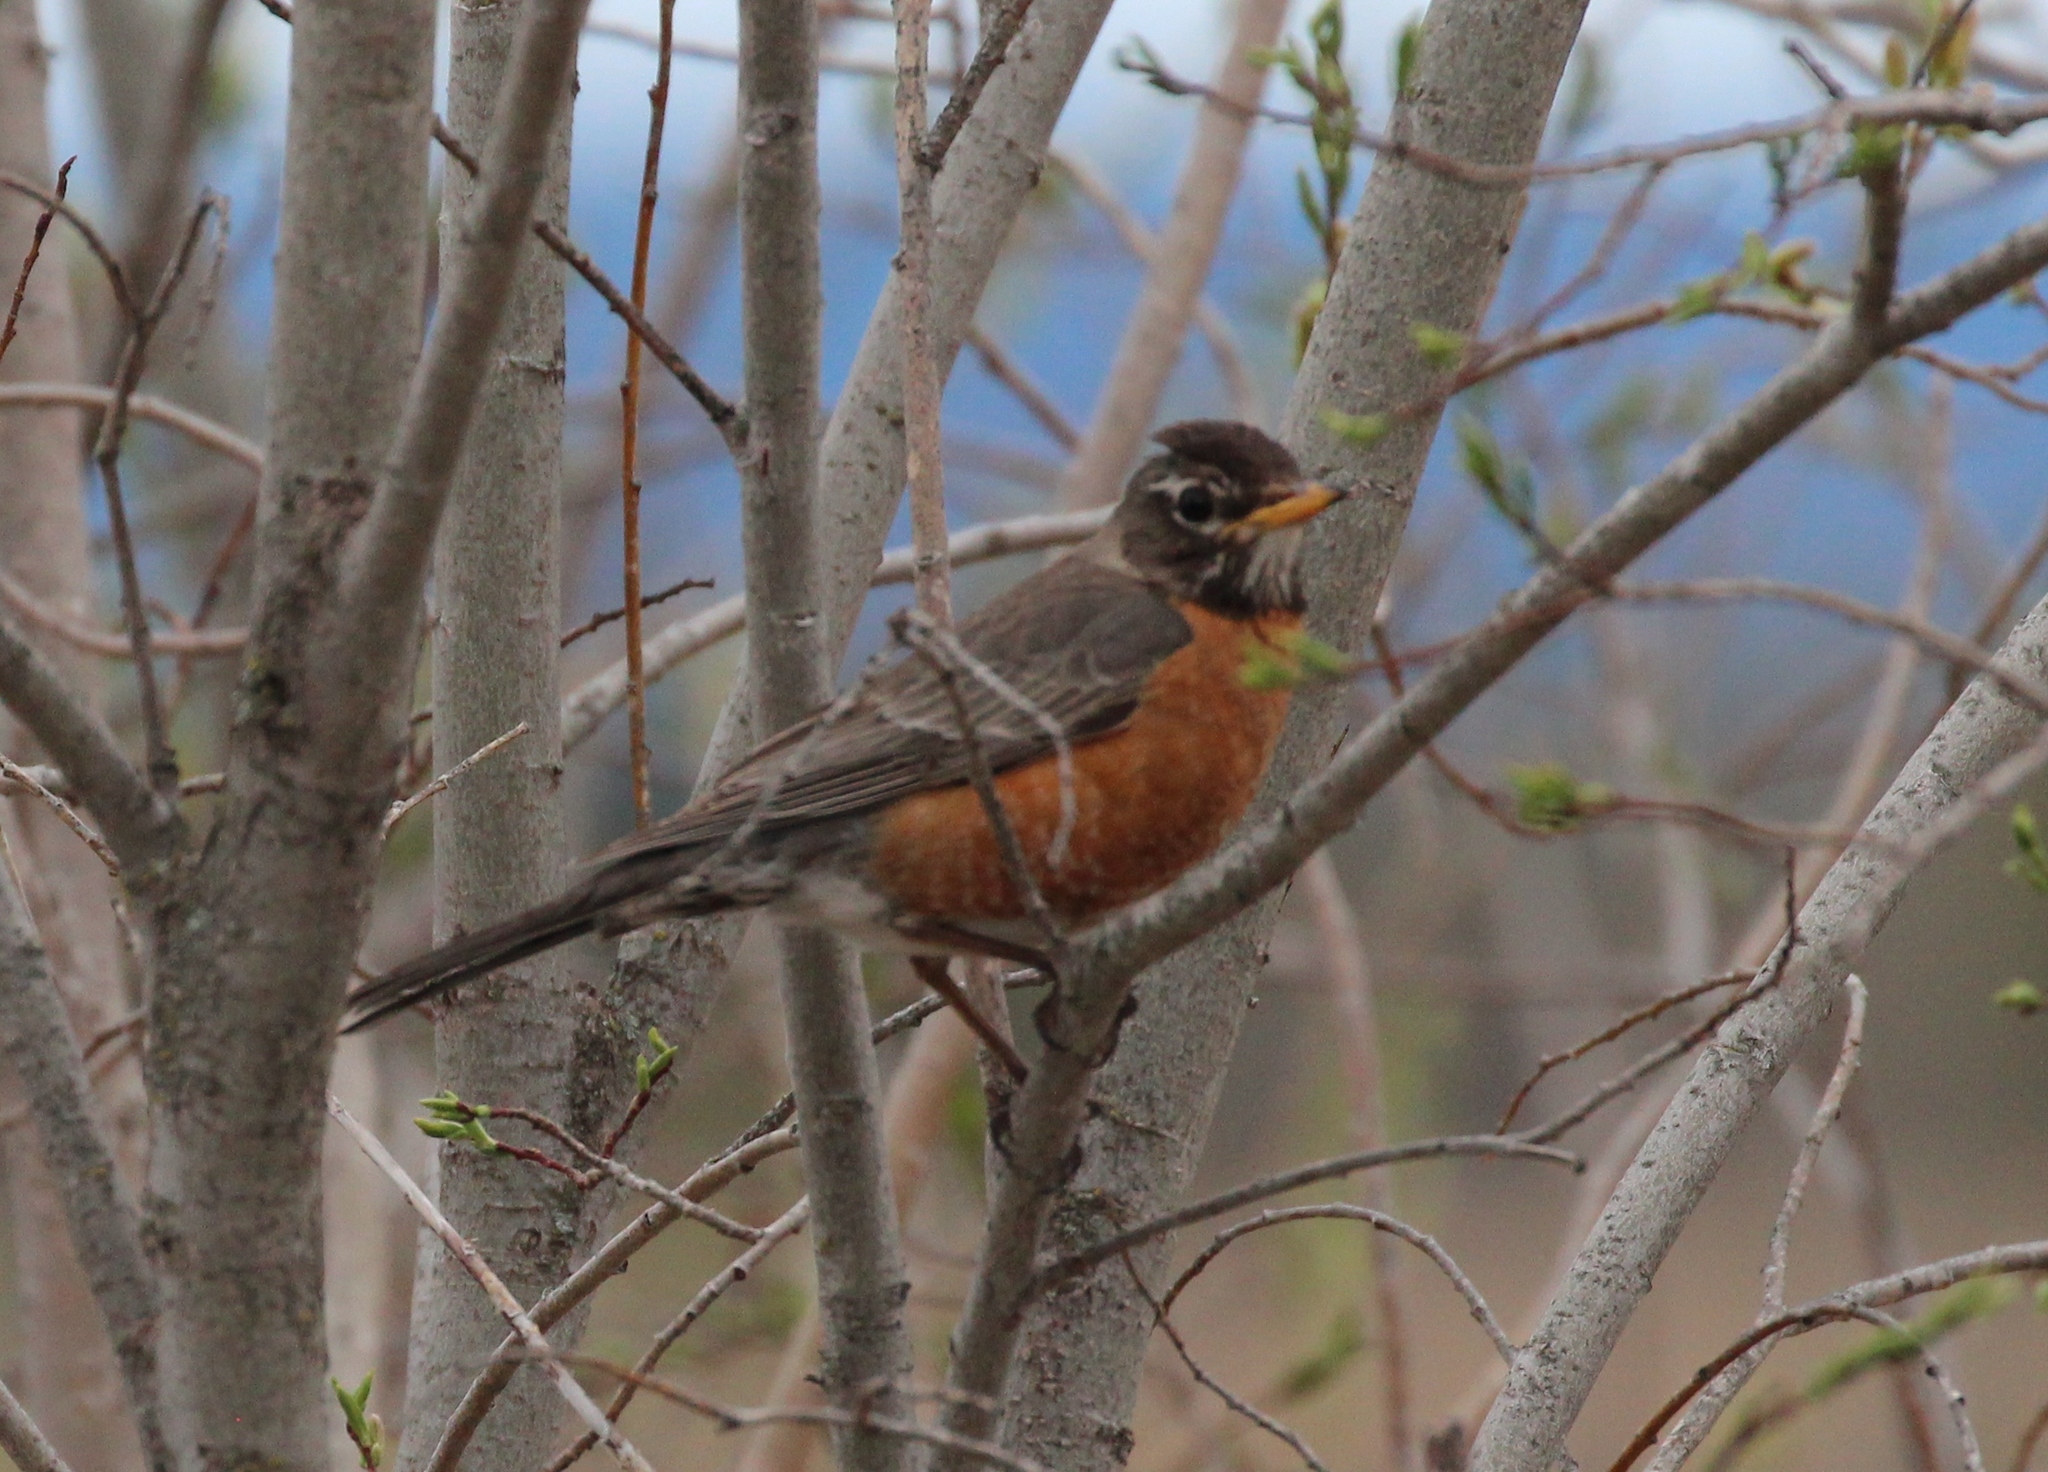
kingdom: Animalia
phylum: Chordata
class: Aves
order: Passeriformes
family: Turdidae
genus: Turdus
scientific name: Turdus migratorius
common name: American robin
